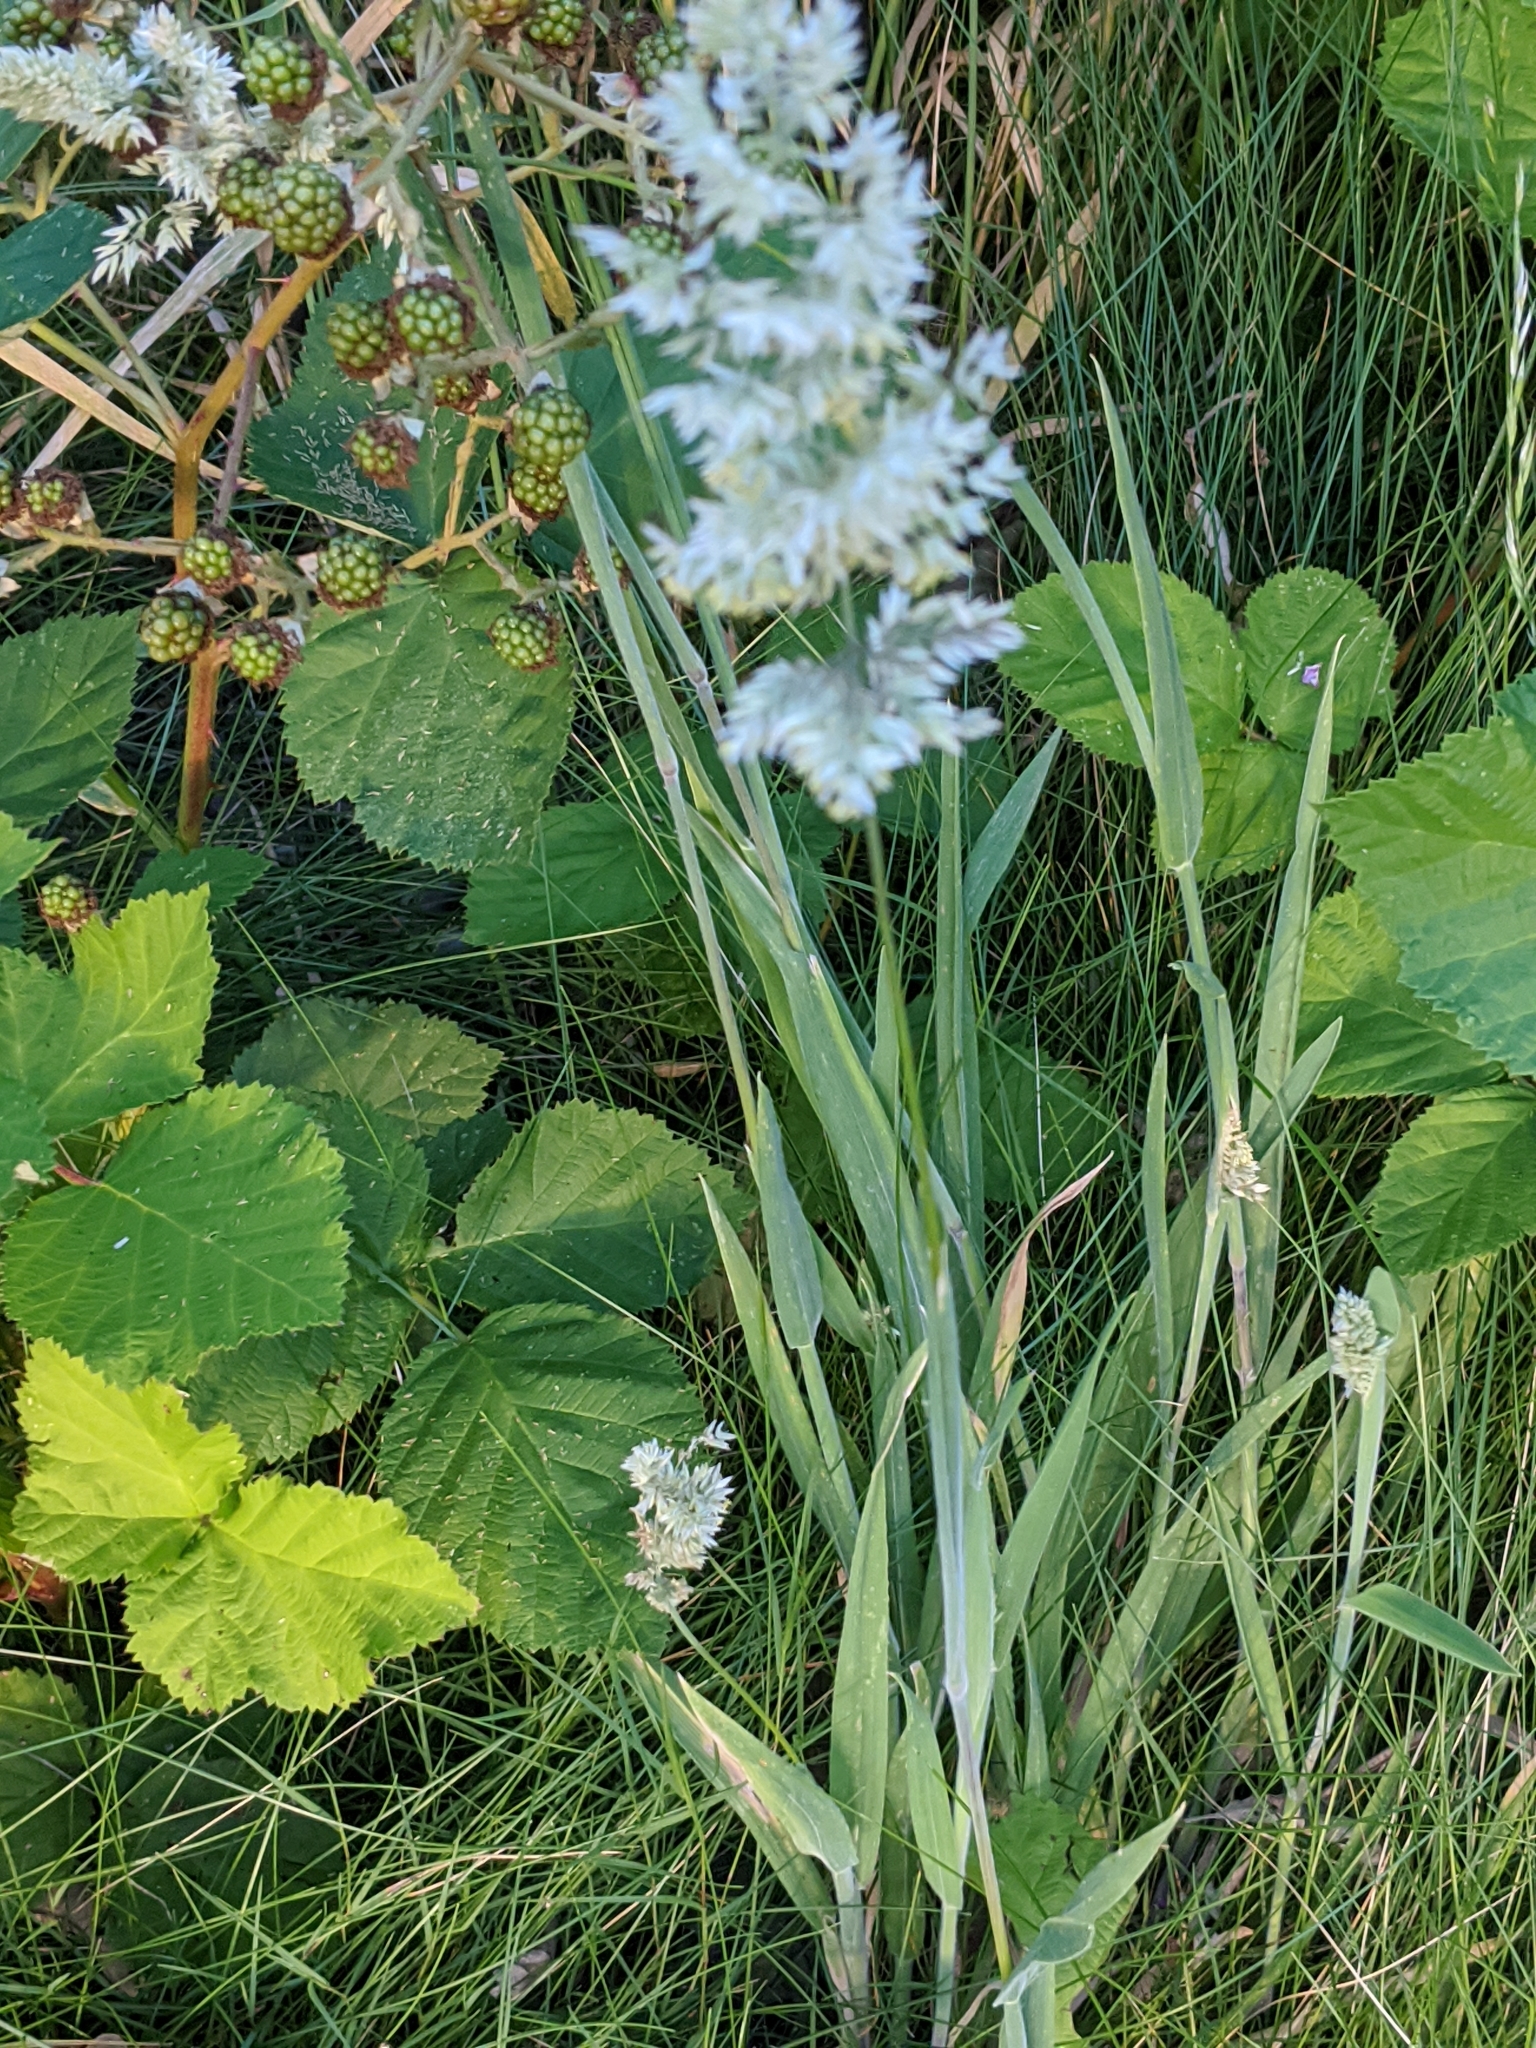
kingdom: Plantae
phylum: Tracheophyta
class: Liliopsida
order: Poales
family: Poaceae
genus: Holcus
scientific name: Holcus lanatus
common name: Yorkshire-fog
